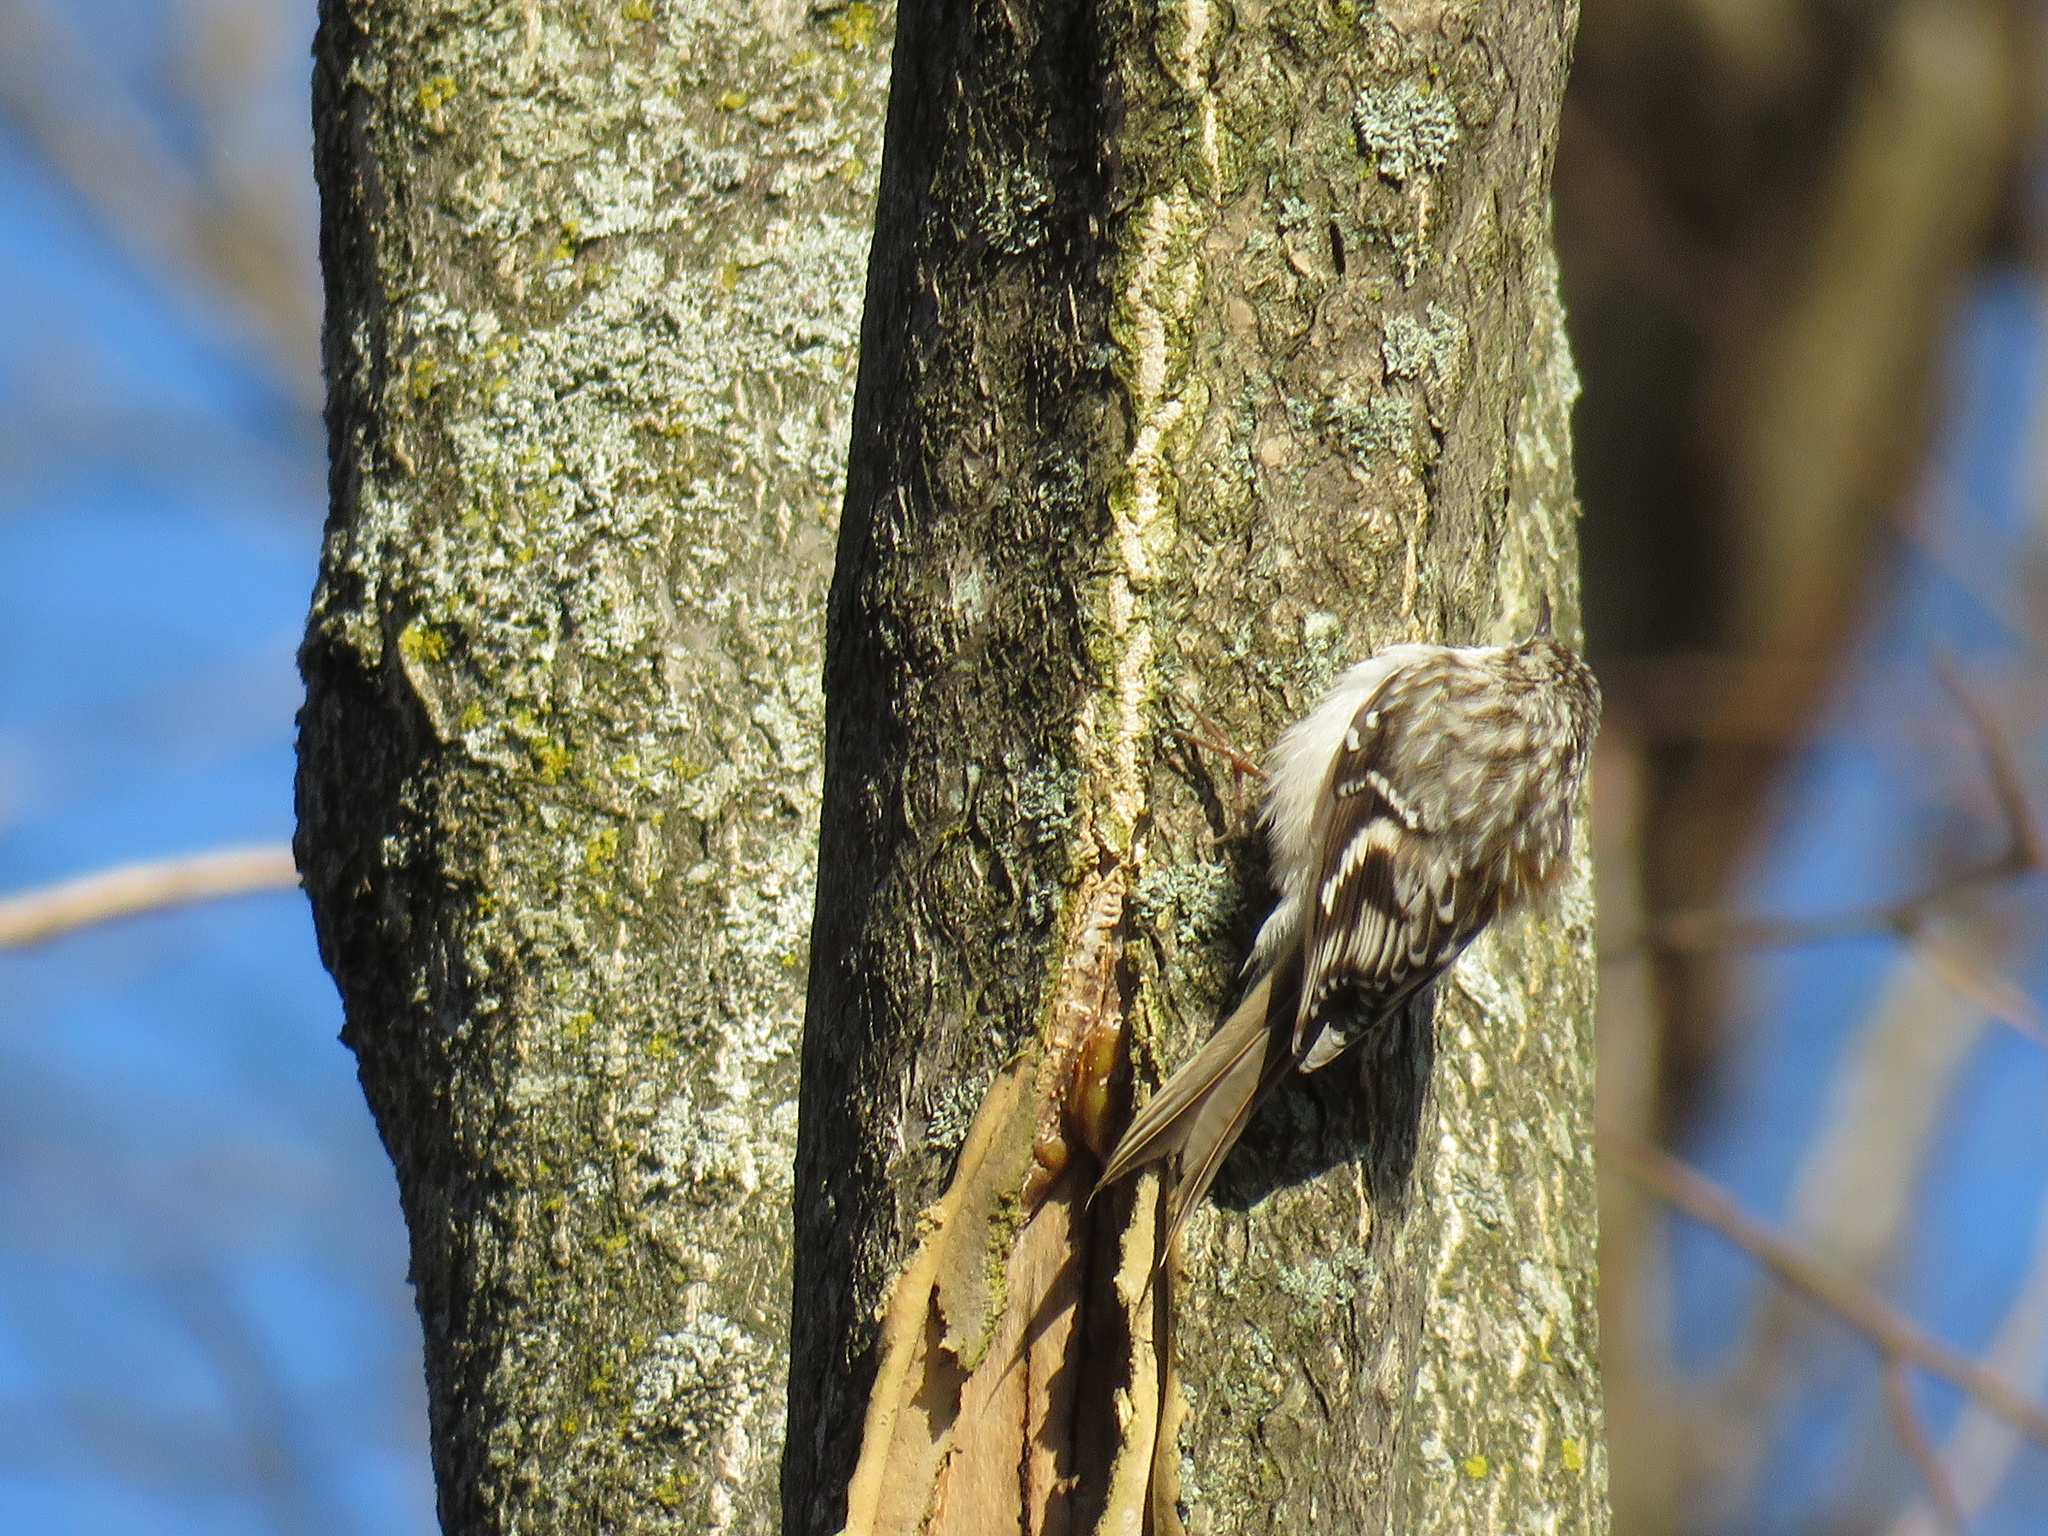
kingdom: Animalia
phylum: Chordata
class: Aves
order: Passeriformes
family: Certhiidae
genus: Certhia
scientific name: Certhia americana
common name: Brown creeper
